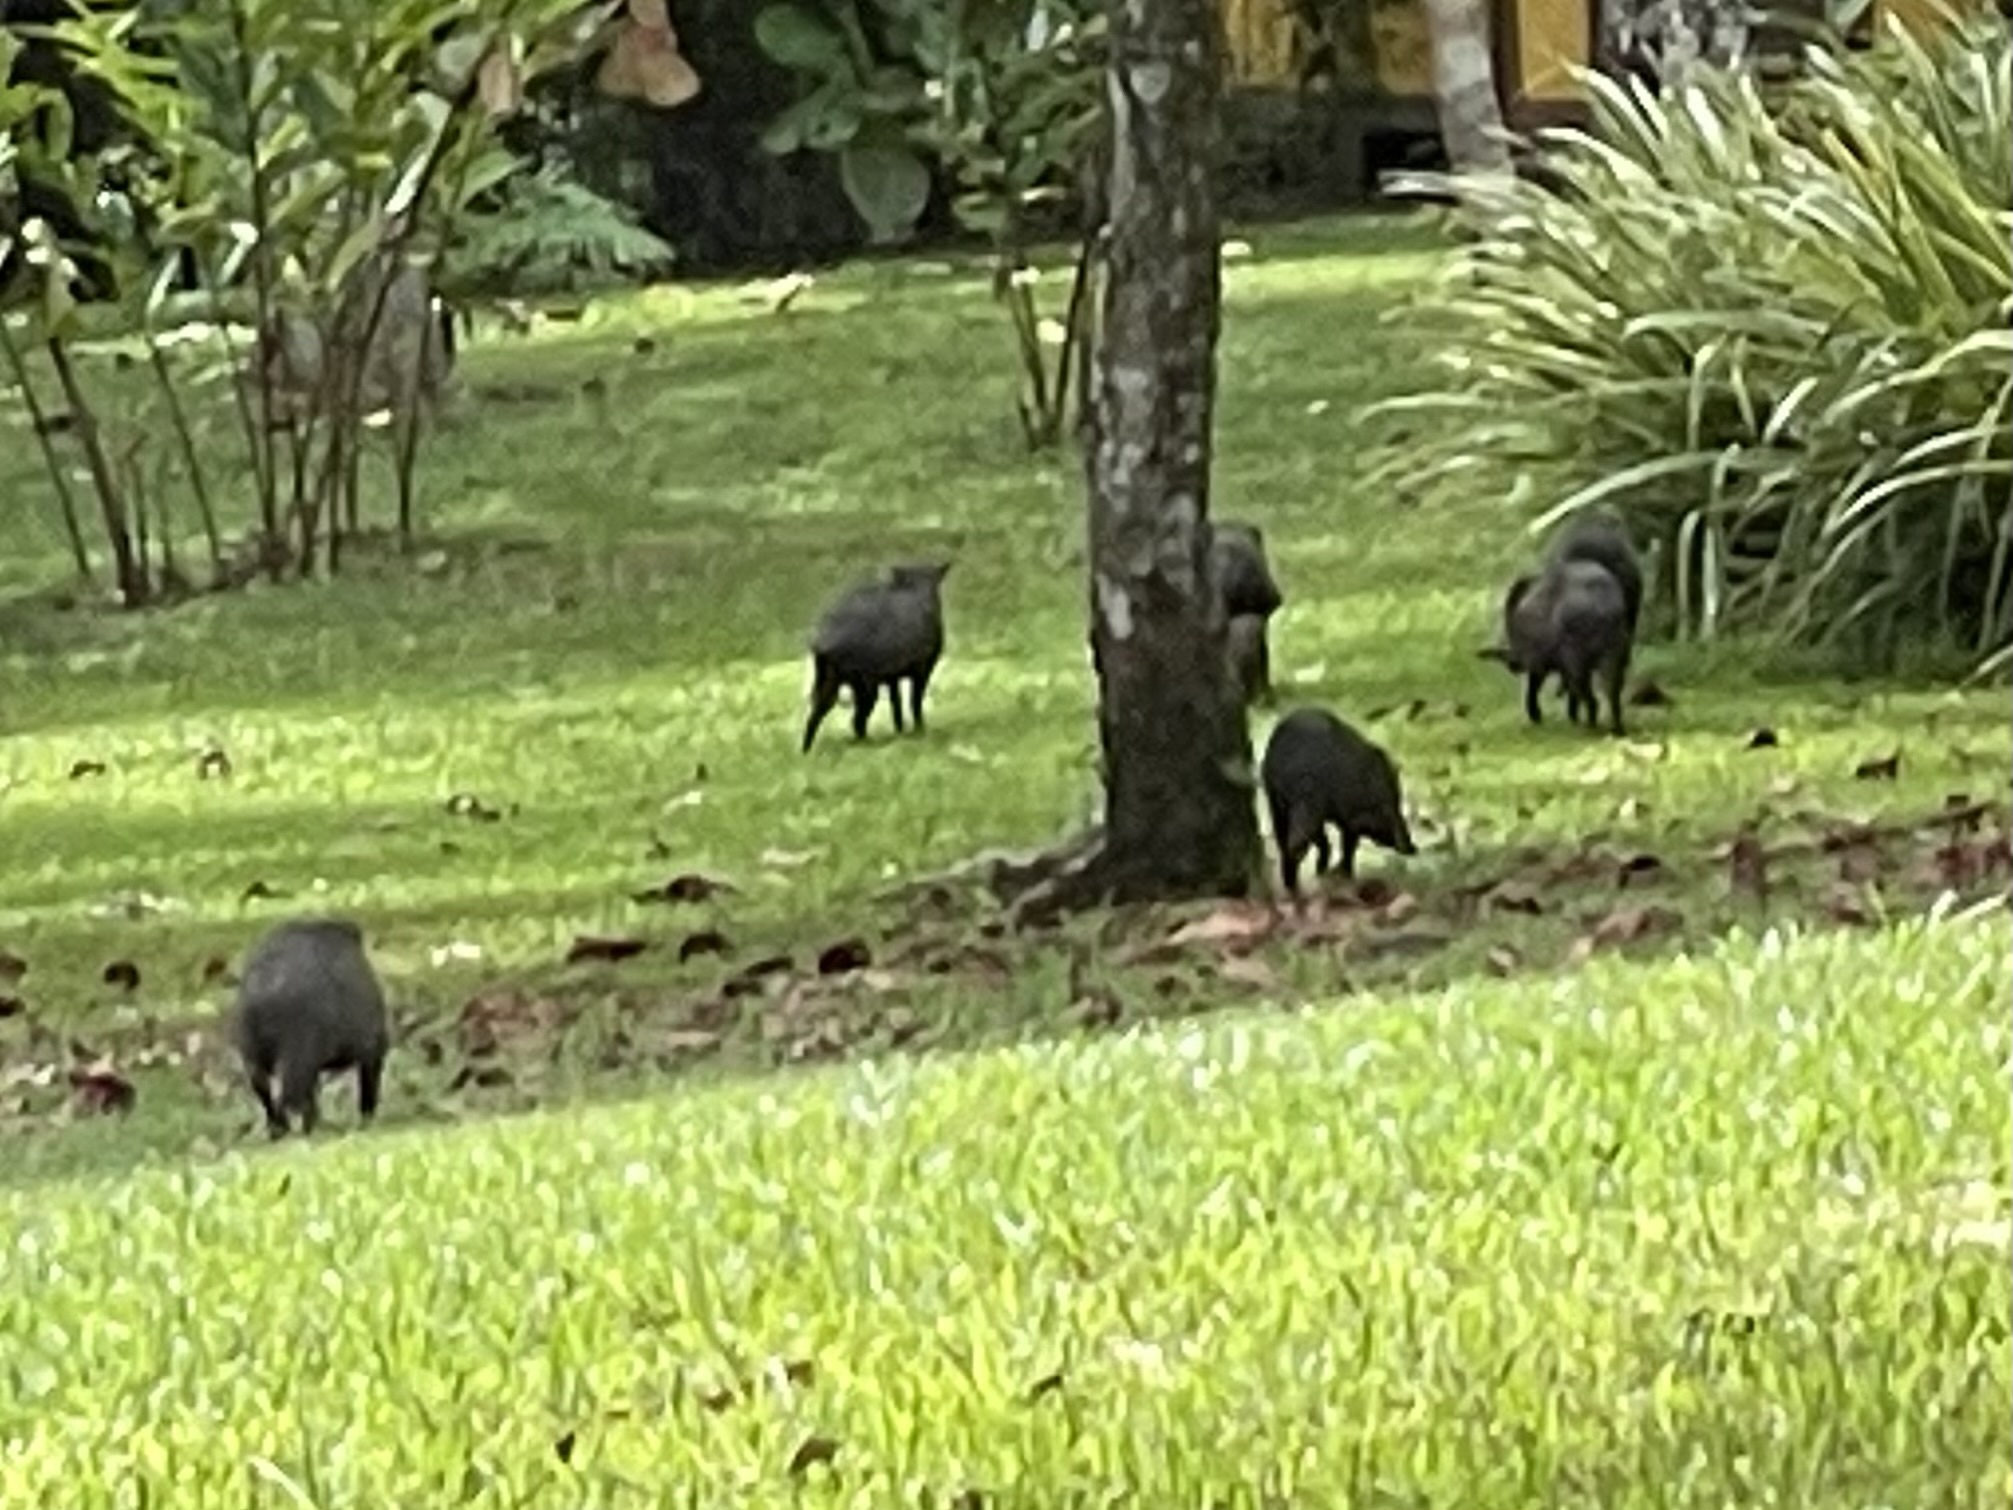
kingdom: Animalia
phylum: Chordata
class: Mammalia
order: Artiodactyla
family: Tayassuidae
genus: Pecari
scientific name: Pecari tajacu
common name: Collared peccary
